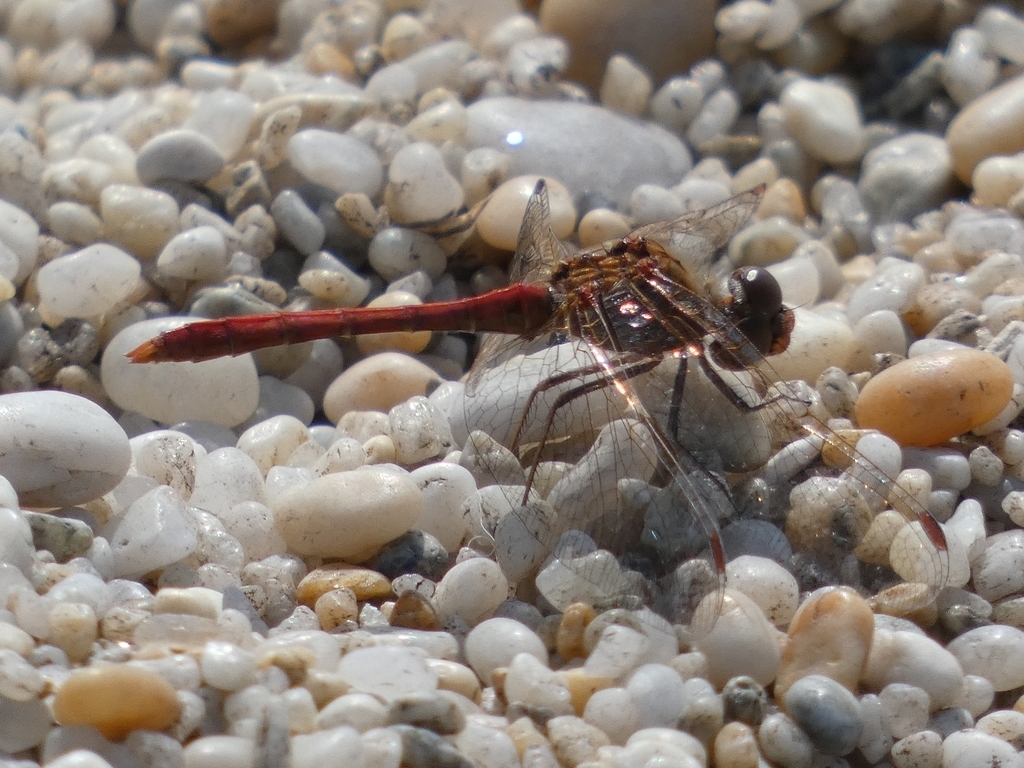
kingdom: Animalia
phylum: Arthropoda
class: Insecta
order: Odonata
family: Libellulidae
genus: Sympetrum
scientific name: Sympetrum meridionale
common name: Southern darter
